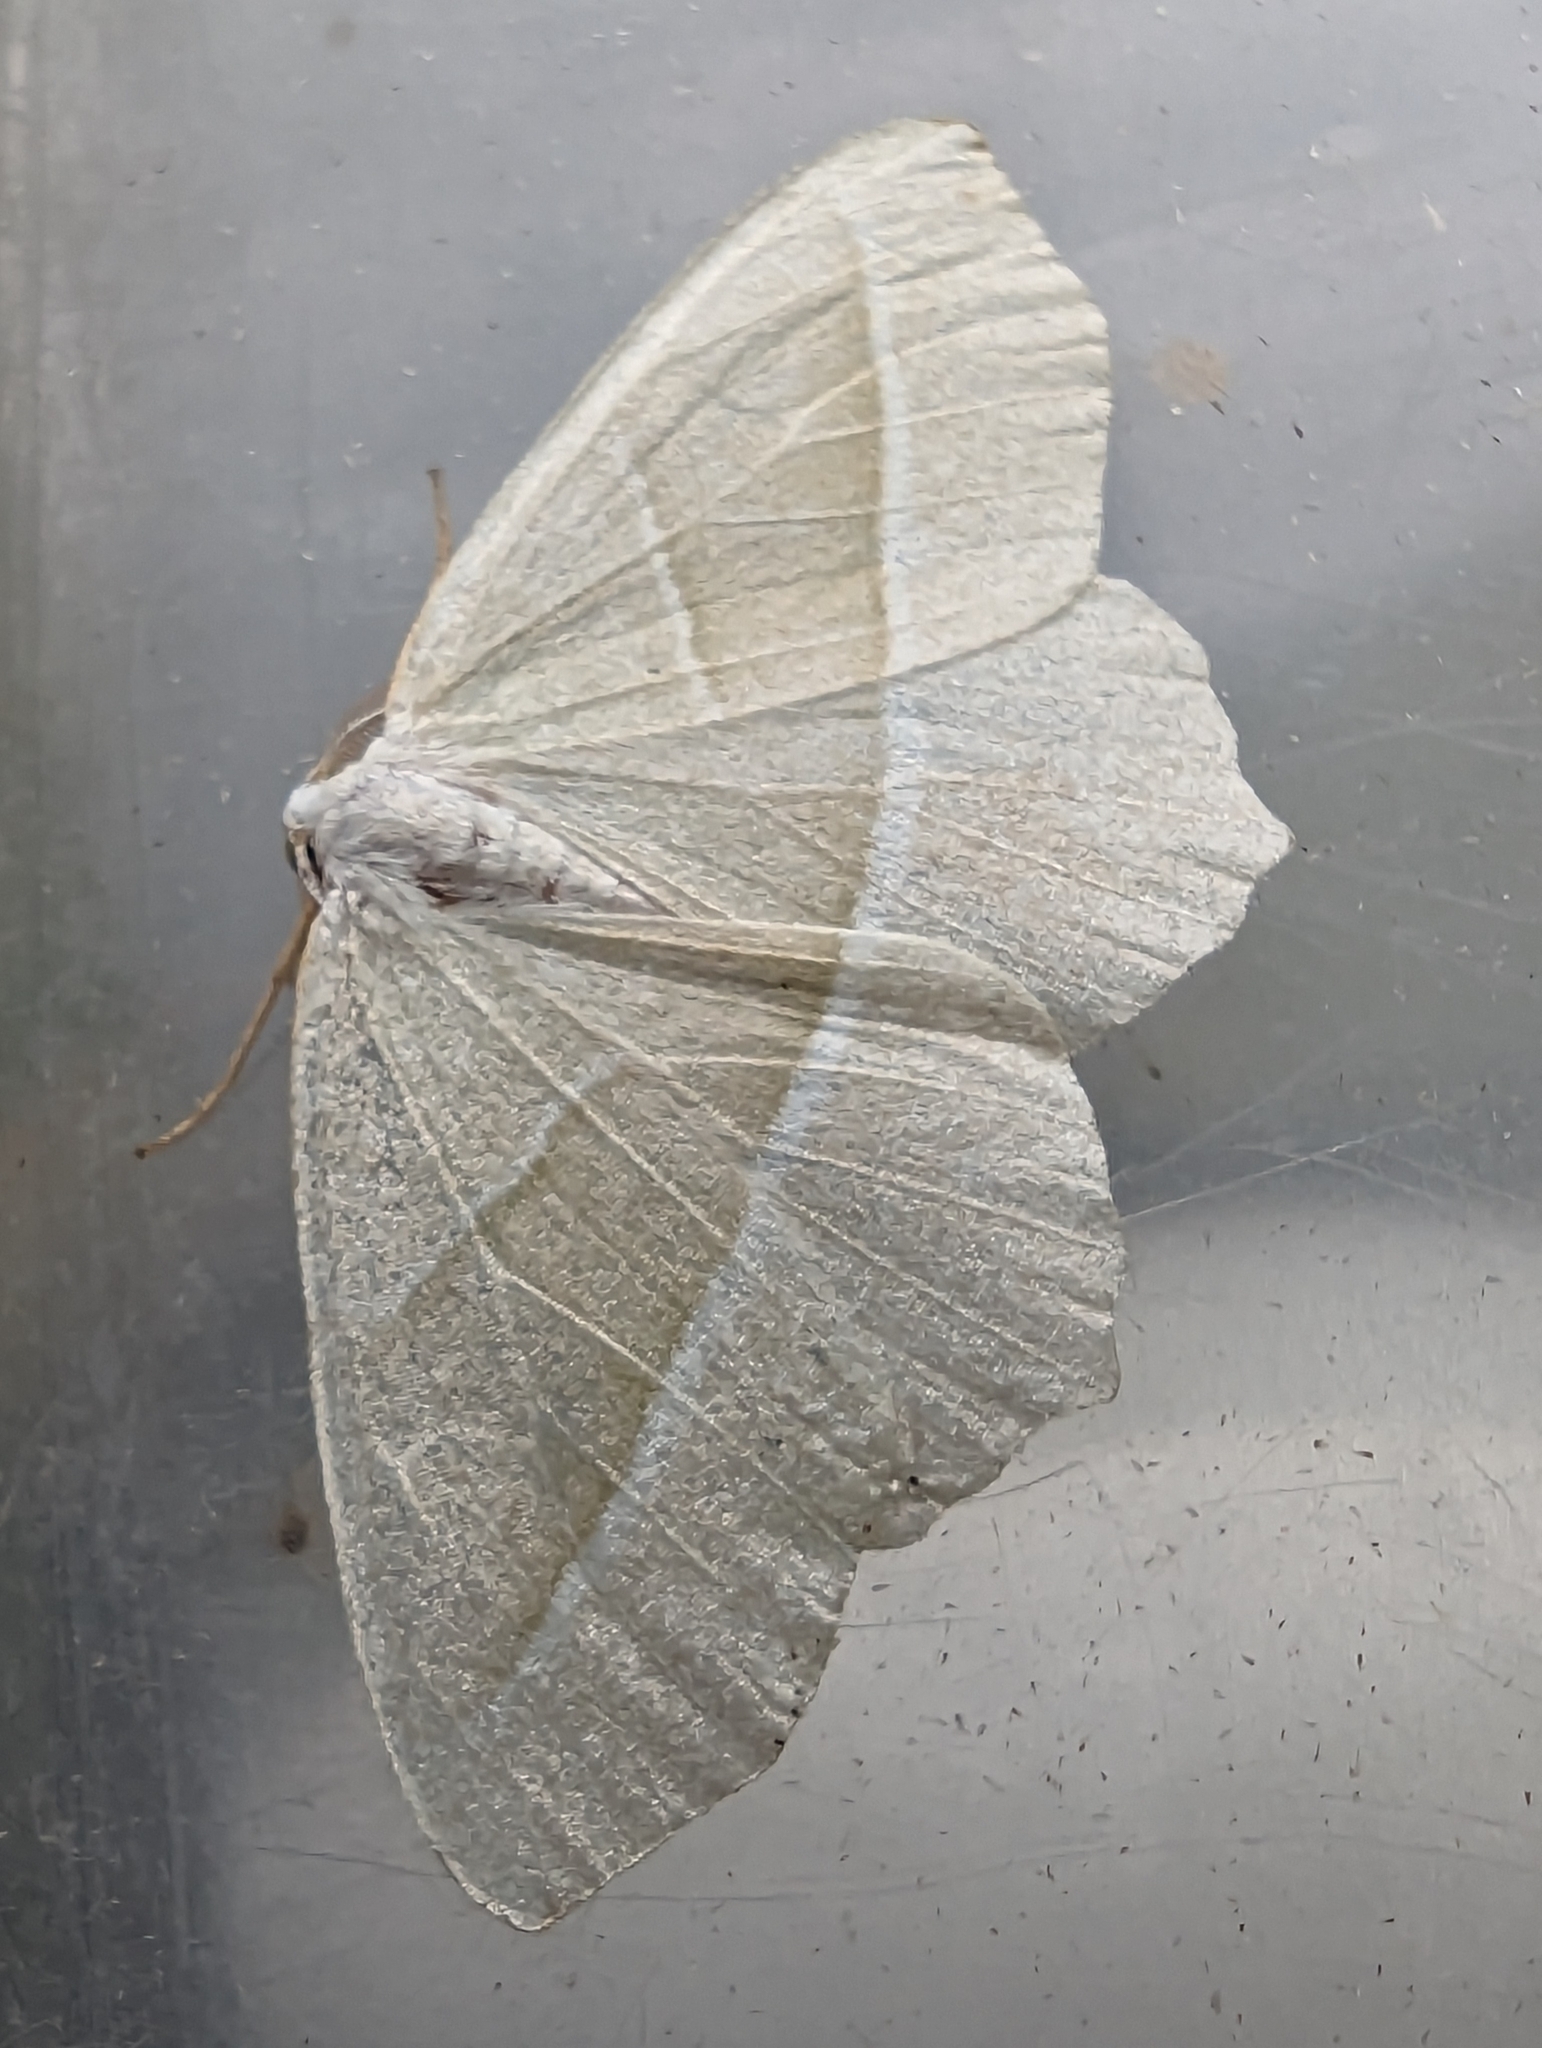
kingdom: Animalia
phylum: Arthropoda
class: Insecta
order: Lepidoptera
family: Geometridae
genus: Campaea
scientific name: Campaea margaritaria
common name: Light emerald
